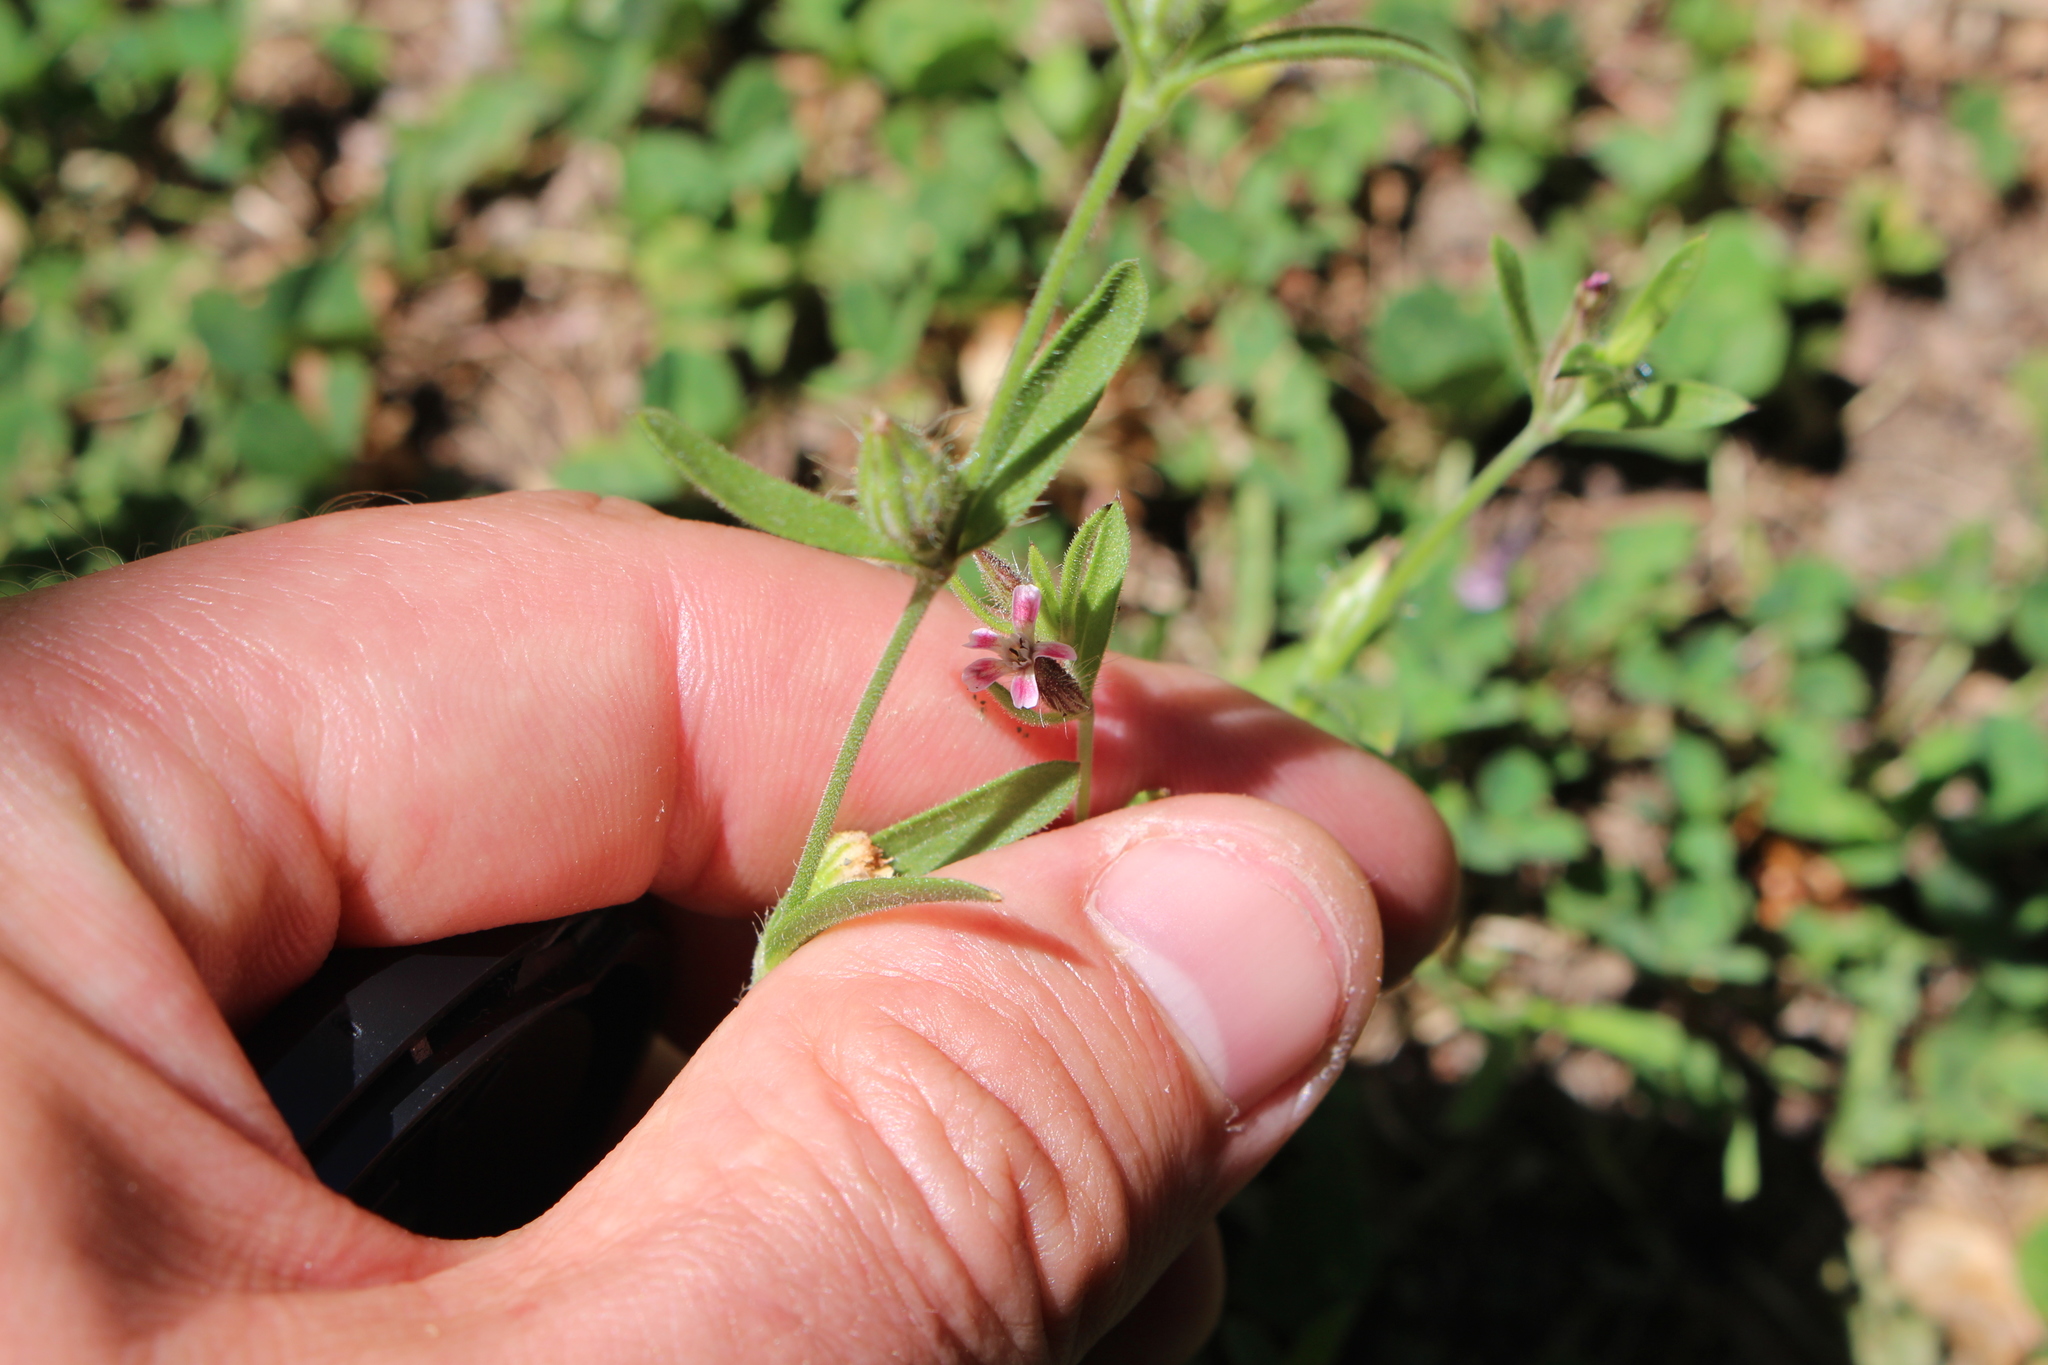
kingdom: Plantae
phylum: Tracheophyta
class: Magnoliopsida
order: Caryophyllales
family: Caryophyllaceae
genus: Silene
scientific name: Silene gallica
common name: Small-flowered catchfly
